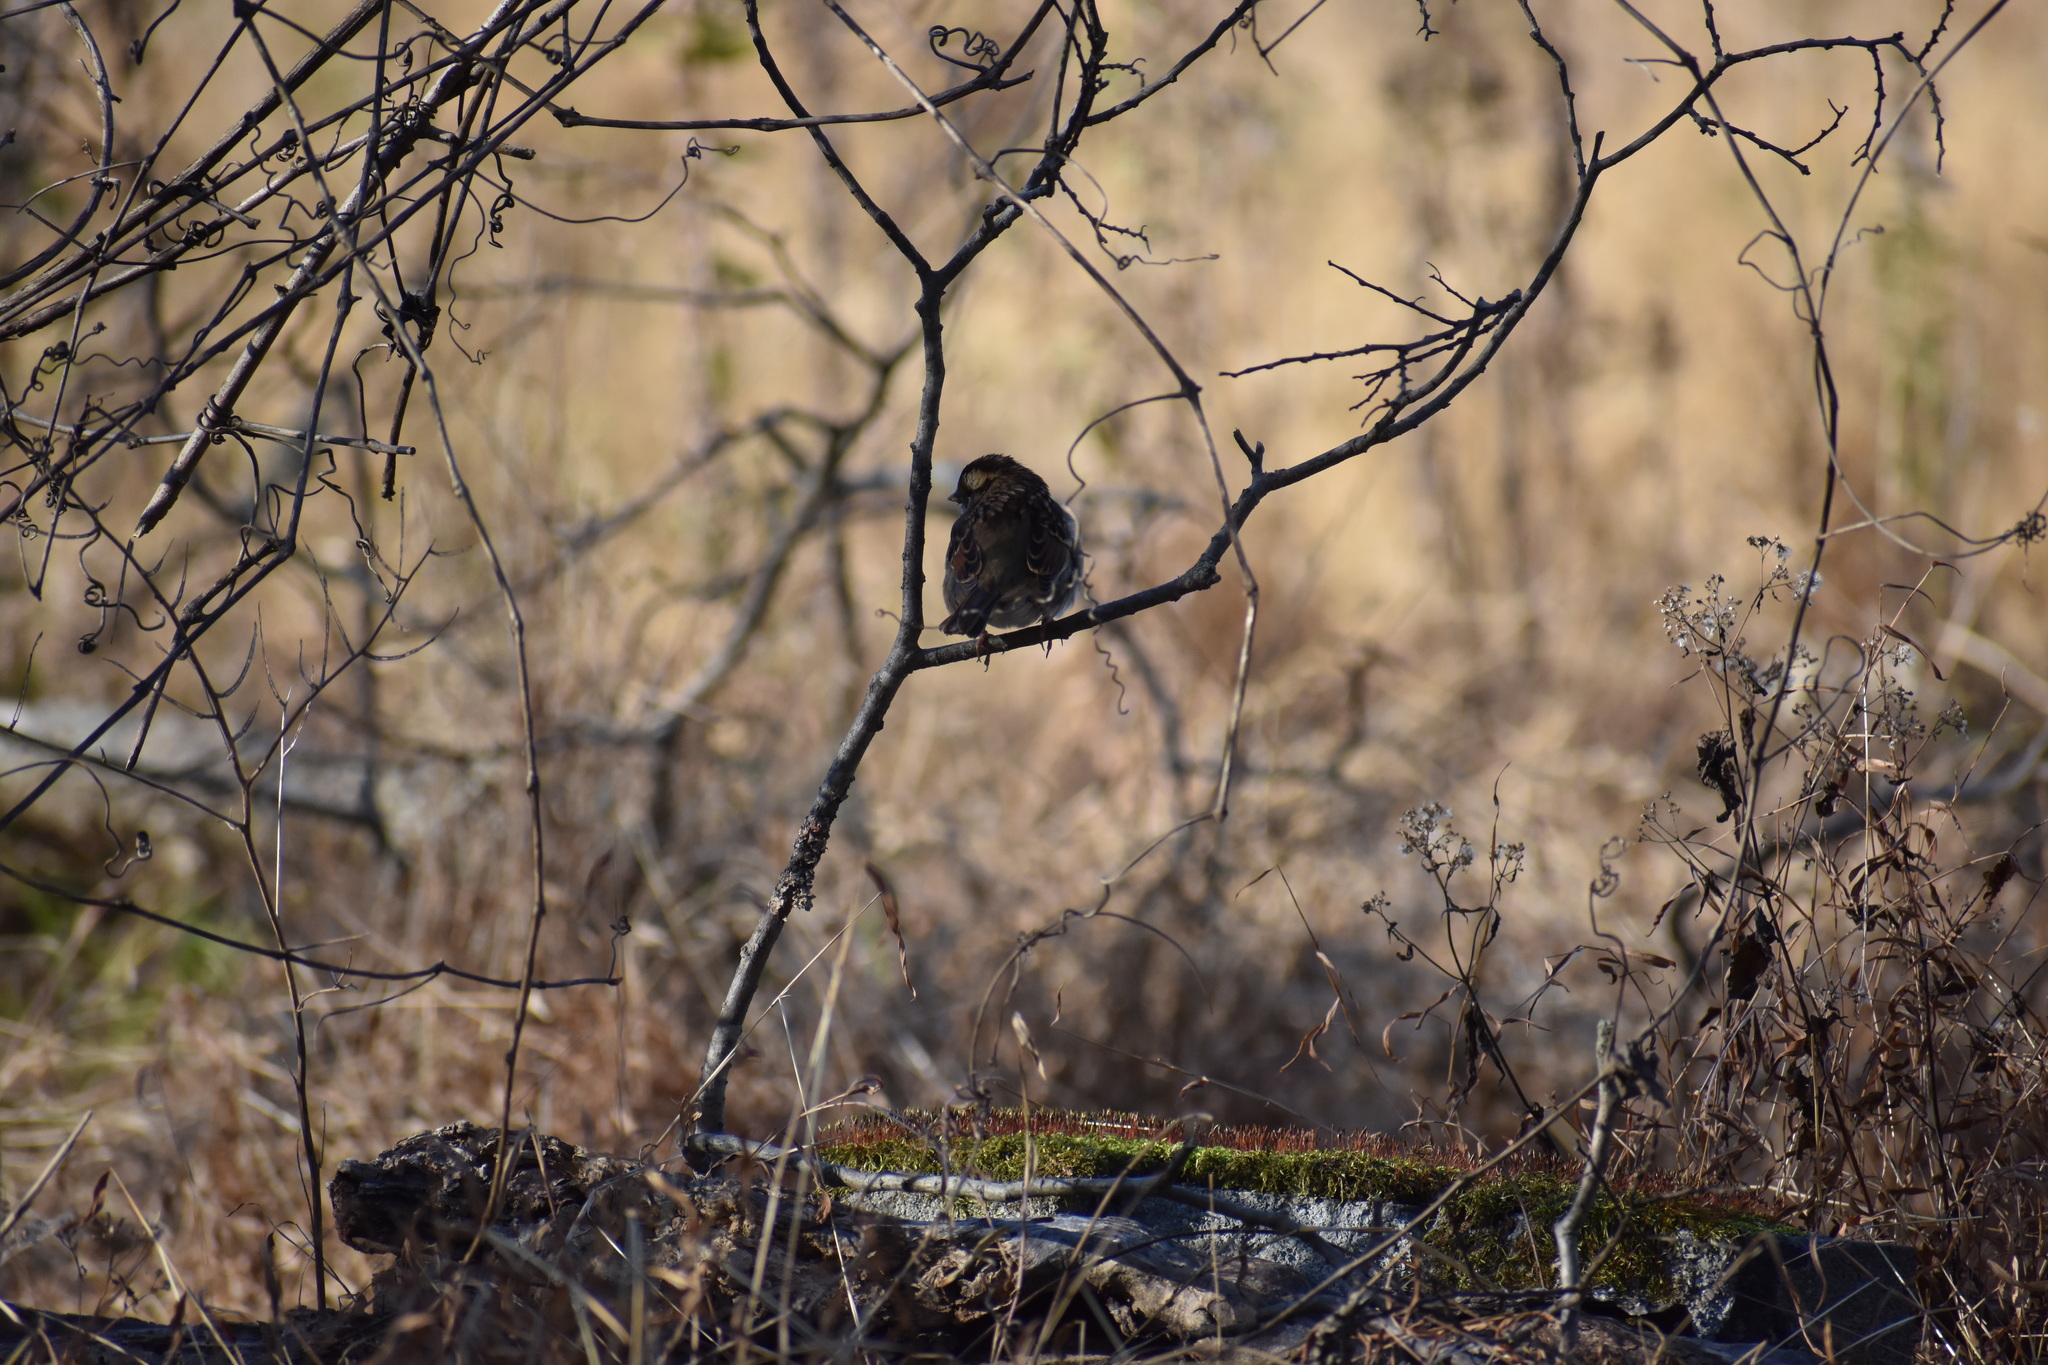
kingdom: Animalia
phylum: Chordata
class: Aves
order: Passeriformes
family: Passerellidae
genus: Zonotrichia
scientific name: Zonotrichia albicollis
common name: White-throated sparrow
